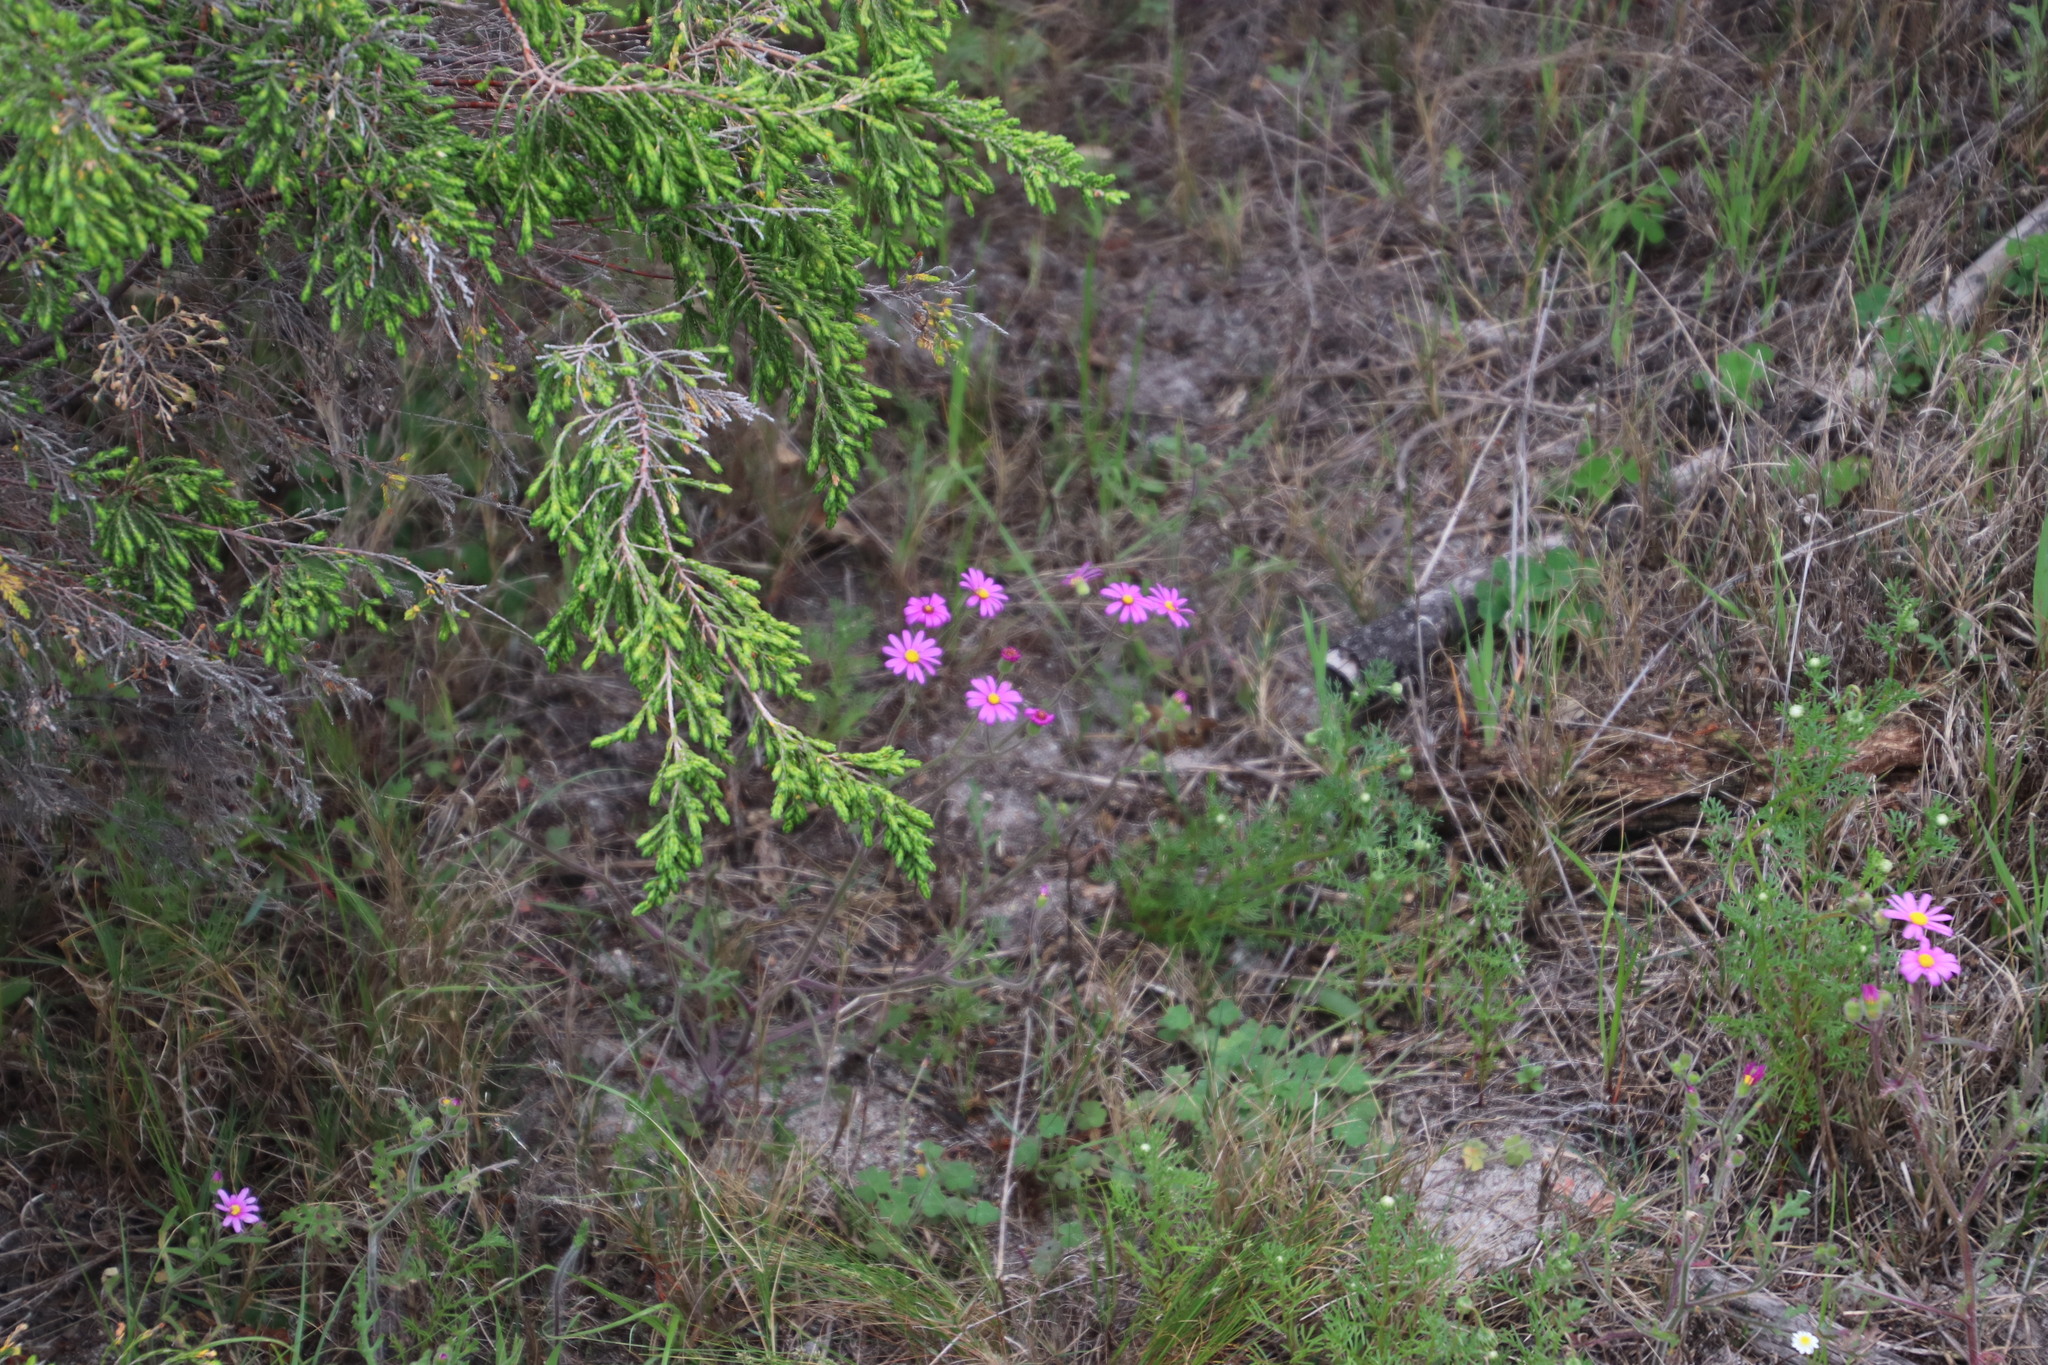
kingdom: Plantae
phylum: Tracheophyta
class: Magnoliopsida
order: Asterales
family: Asteraceae
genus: Senecio
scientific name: Senecio arenarius
